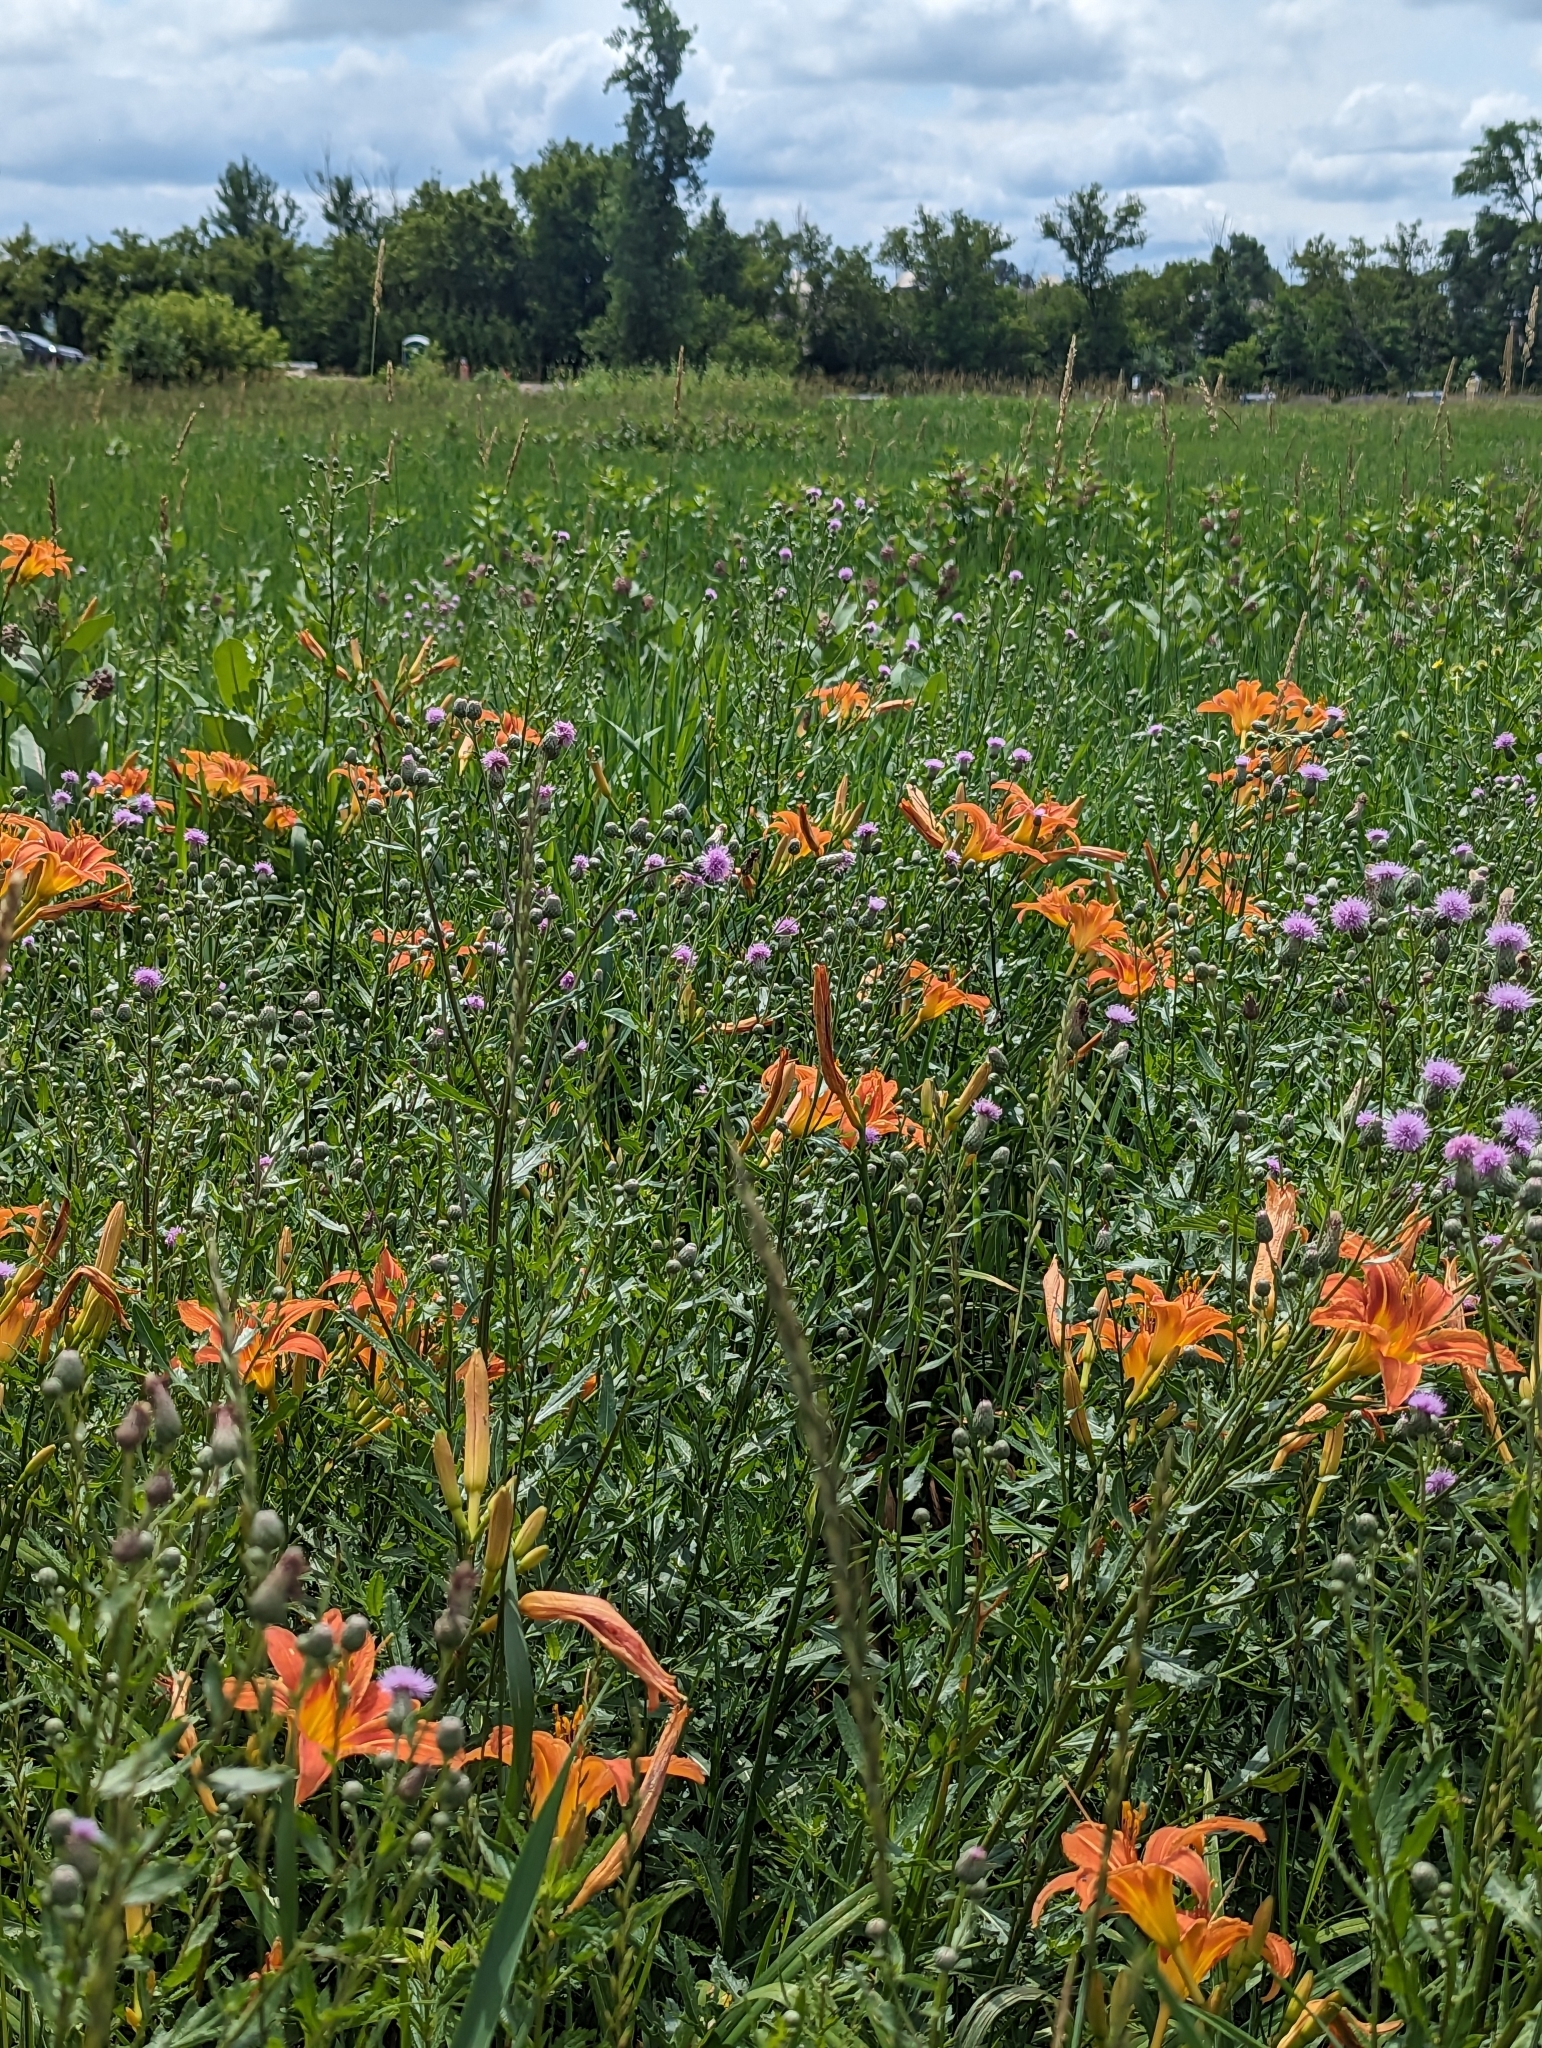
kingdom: Plantae
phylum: Tracheophyta
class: Liliopsida
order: Asparagales
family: Asphodelaceae
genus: Hemerocallis
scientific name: Hemerocallis fulva
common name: Orange day-lily
